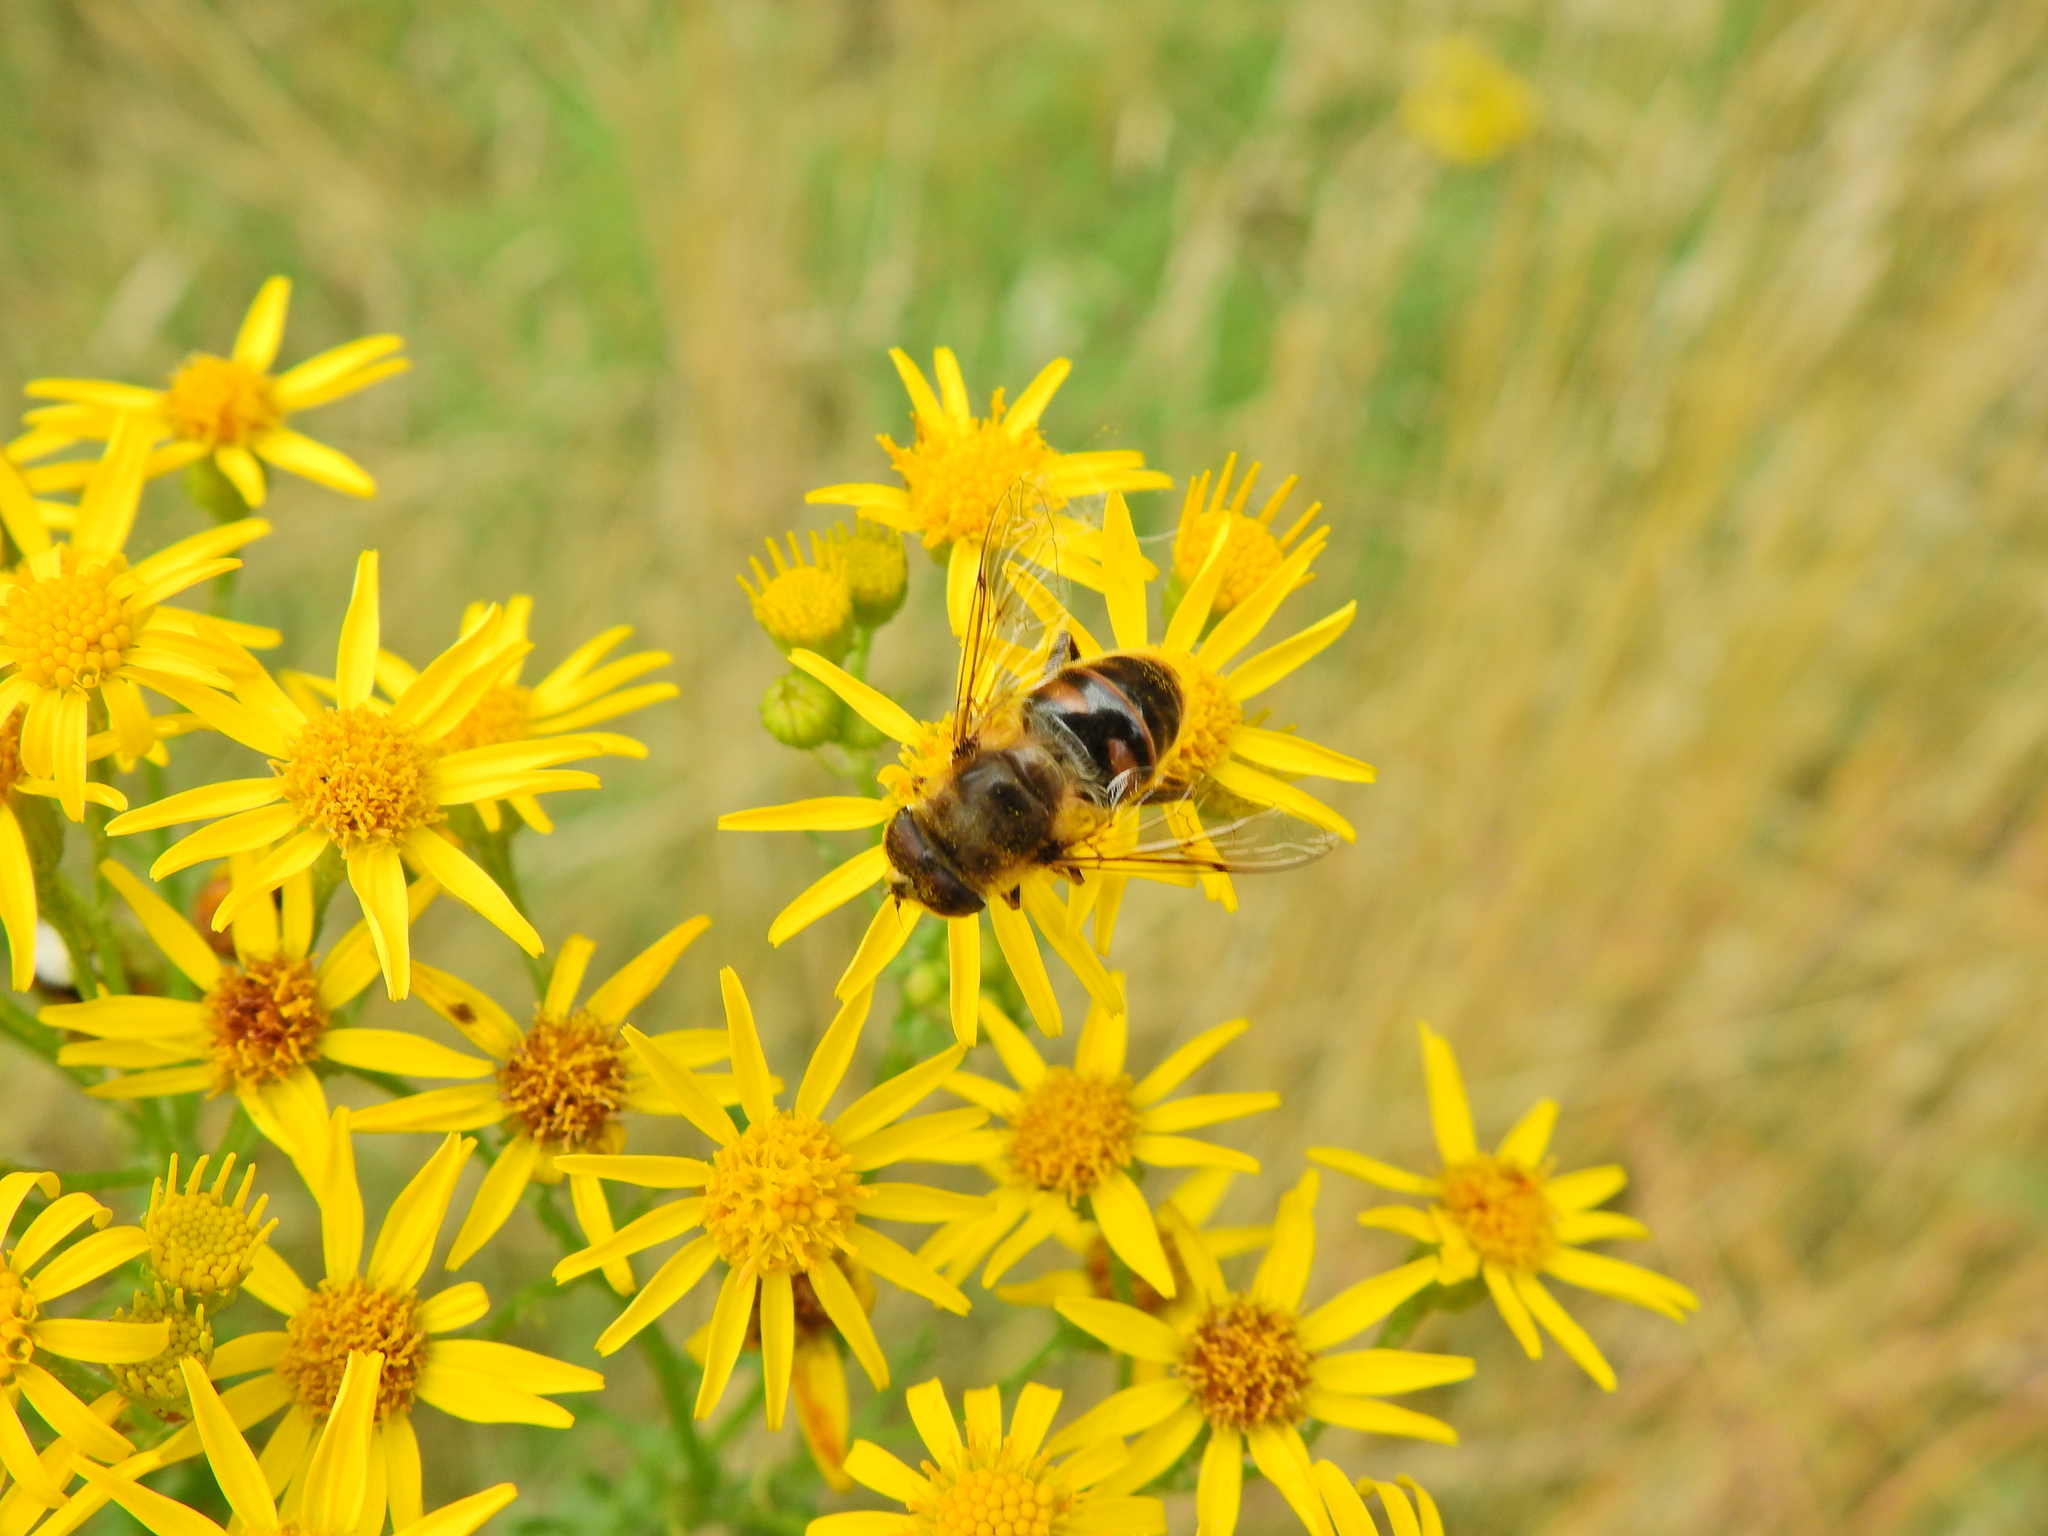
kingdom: Animalia
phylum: Arthropoda
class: Insecta
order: Diptera
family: Syrphidae
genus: Eristalis
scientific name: Eristalis tenax
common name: Drone fly
